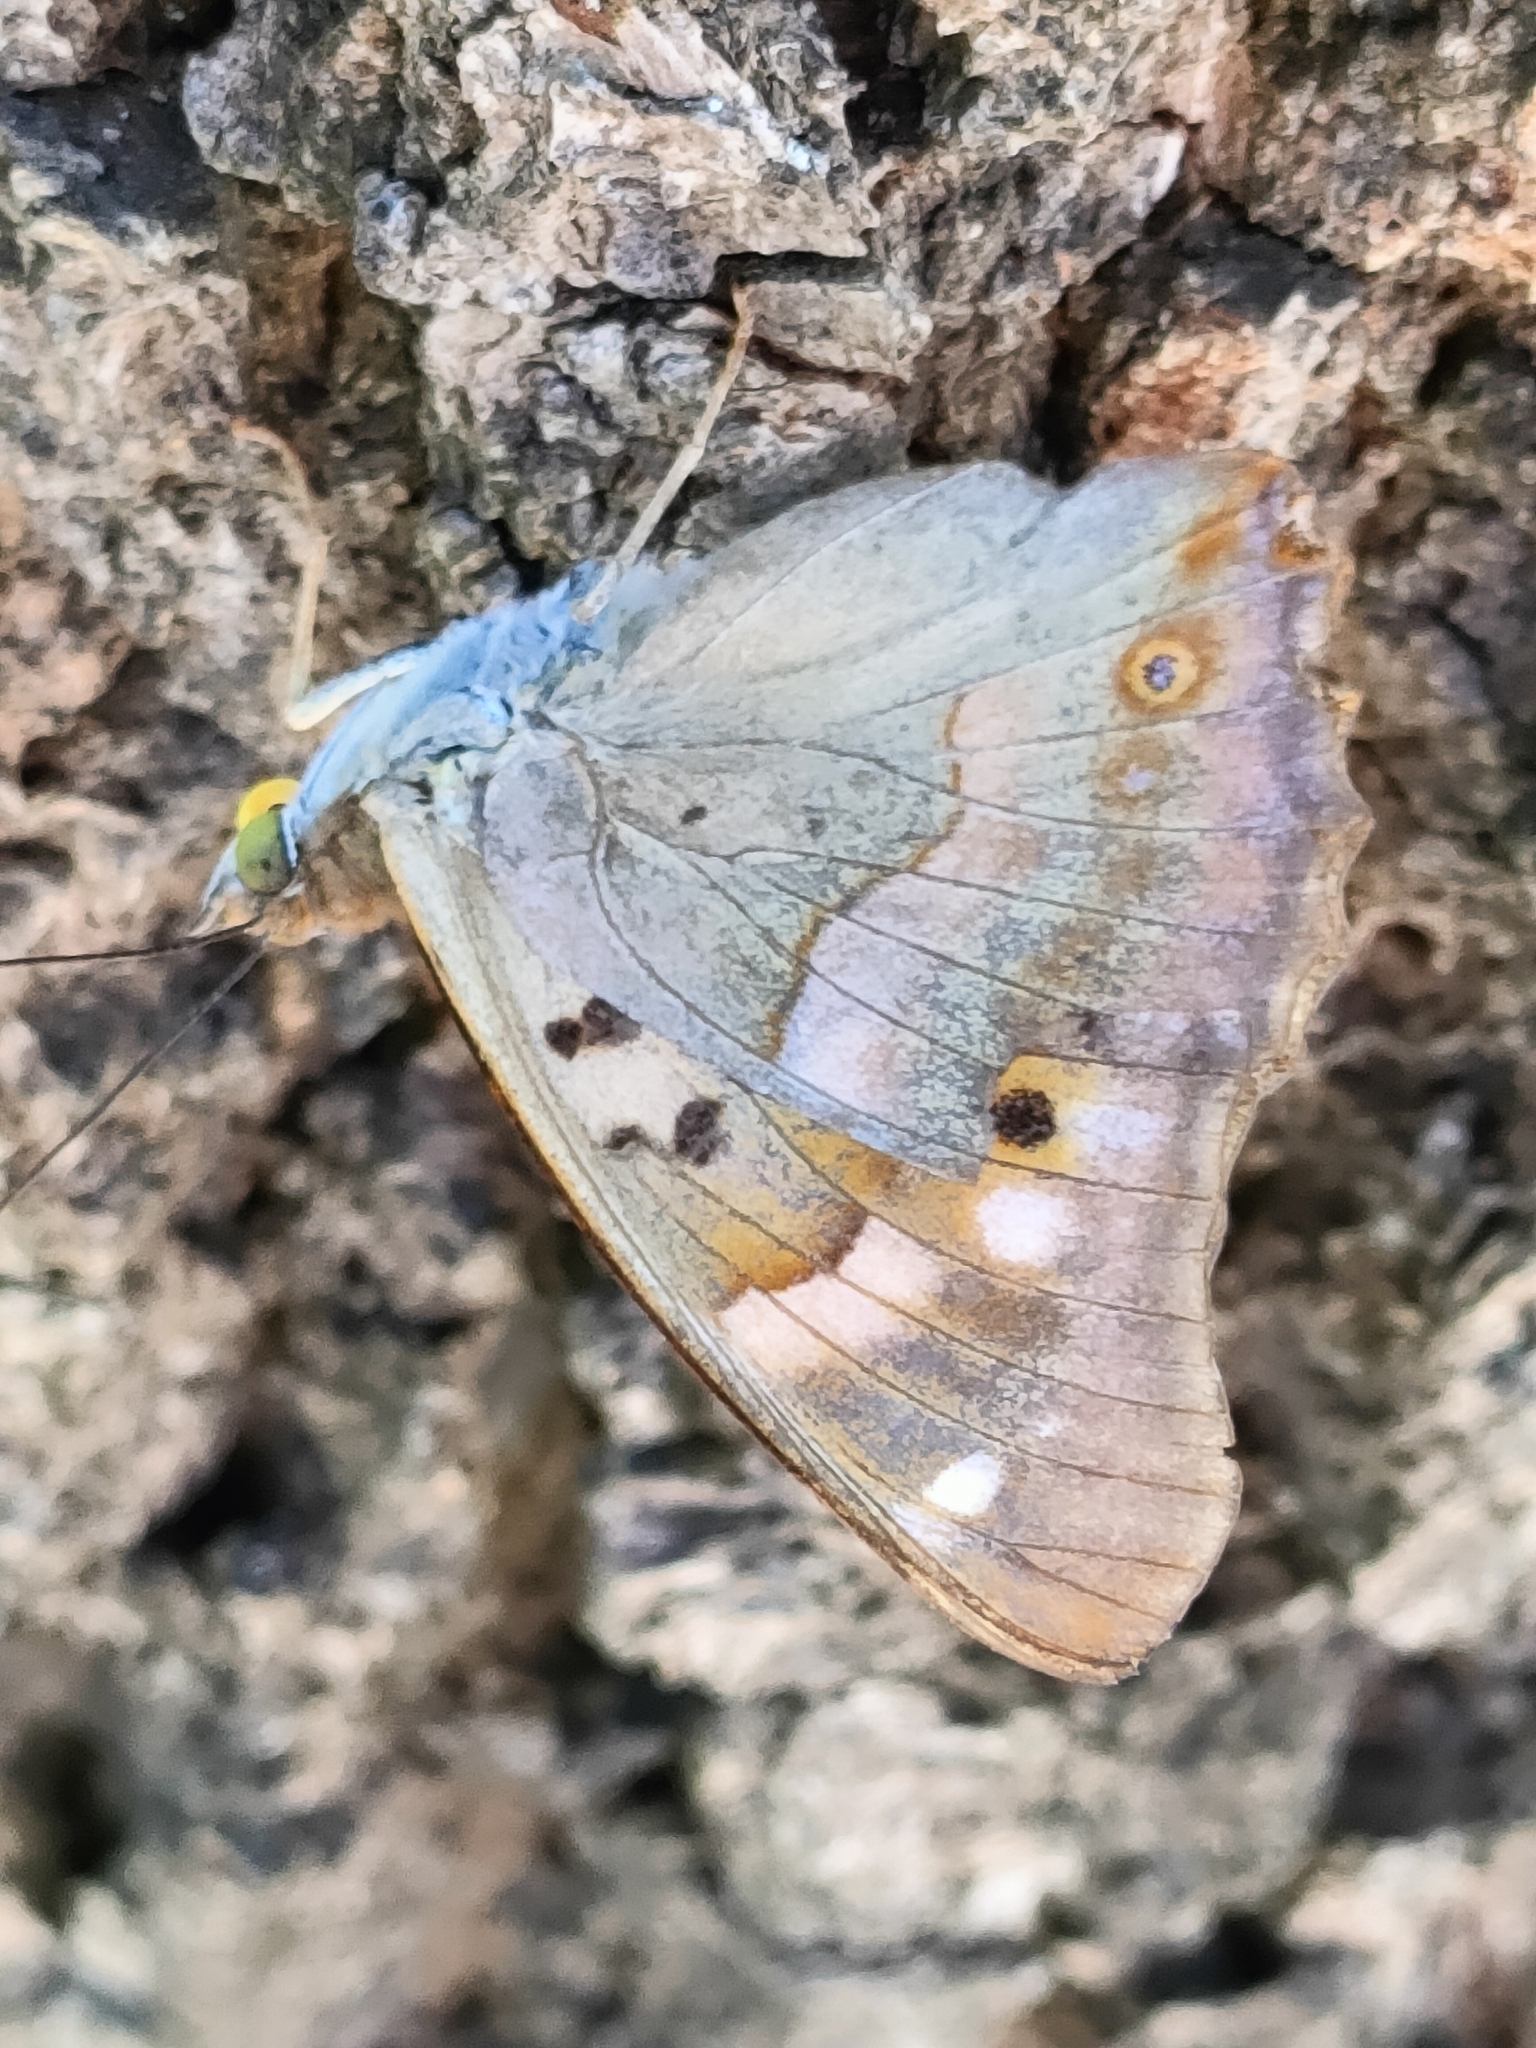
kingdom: Animalia
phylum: Arthropoda
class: Insecta
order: Lepidoptera
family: Nymphalidae
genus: Apatura
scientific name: Apatura ilia
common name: Lesser purple emperor
